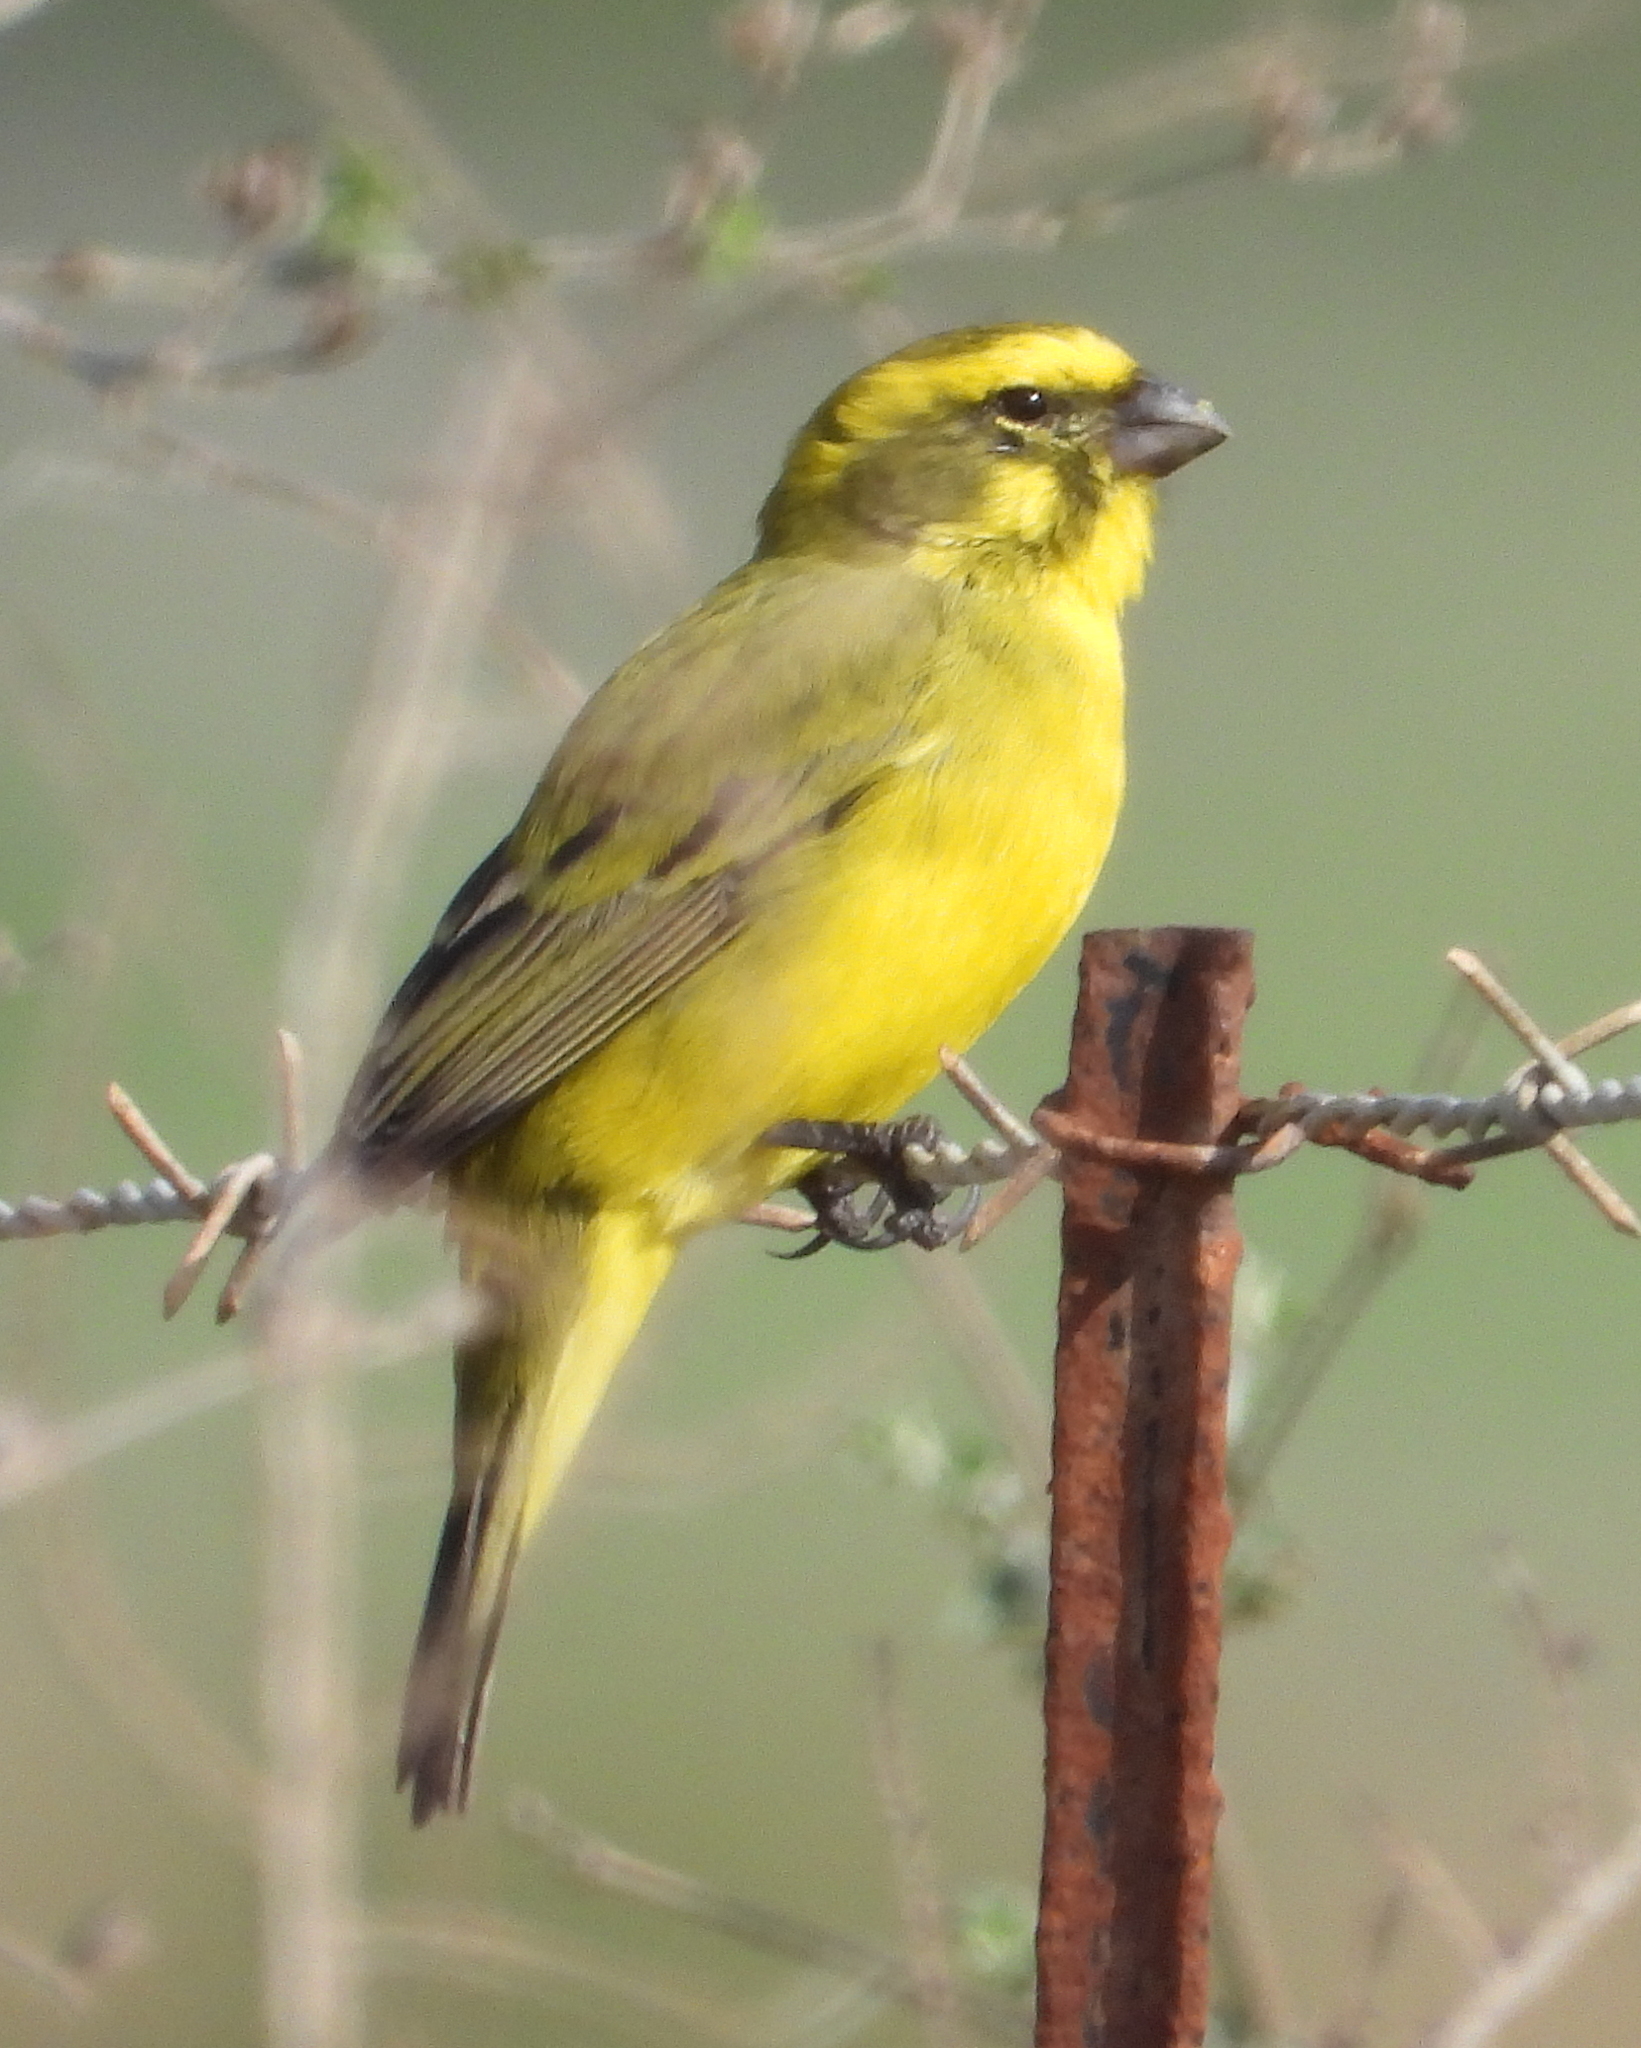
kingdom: Animalia
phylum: Chordata
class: Aves
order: Passeriformes
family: Fringillidae
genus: Crithagra
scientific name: Crithagra flaviventris
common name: Yellow canary
